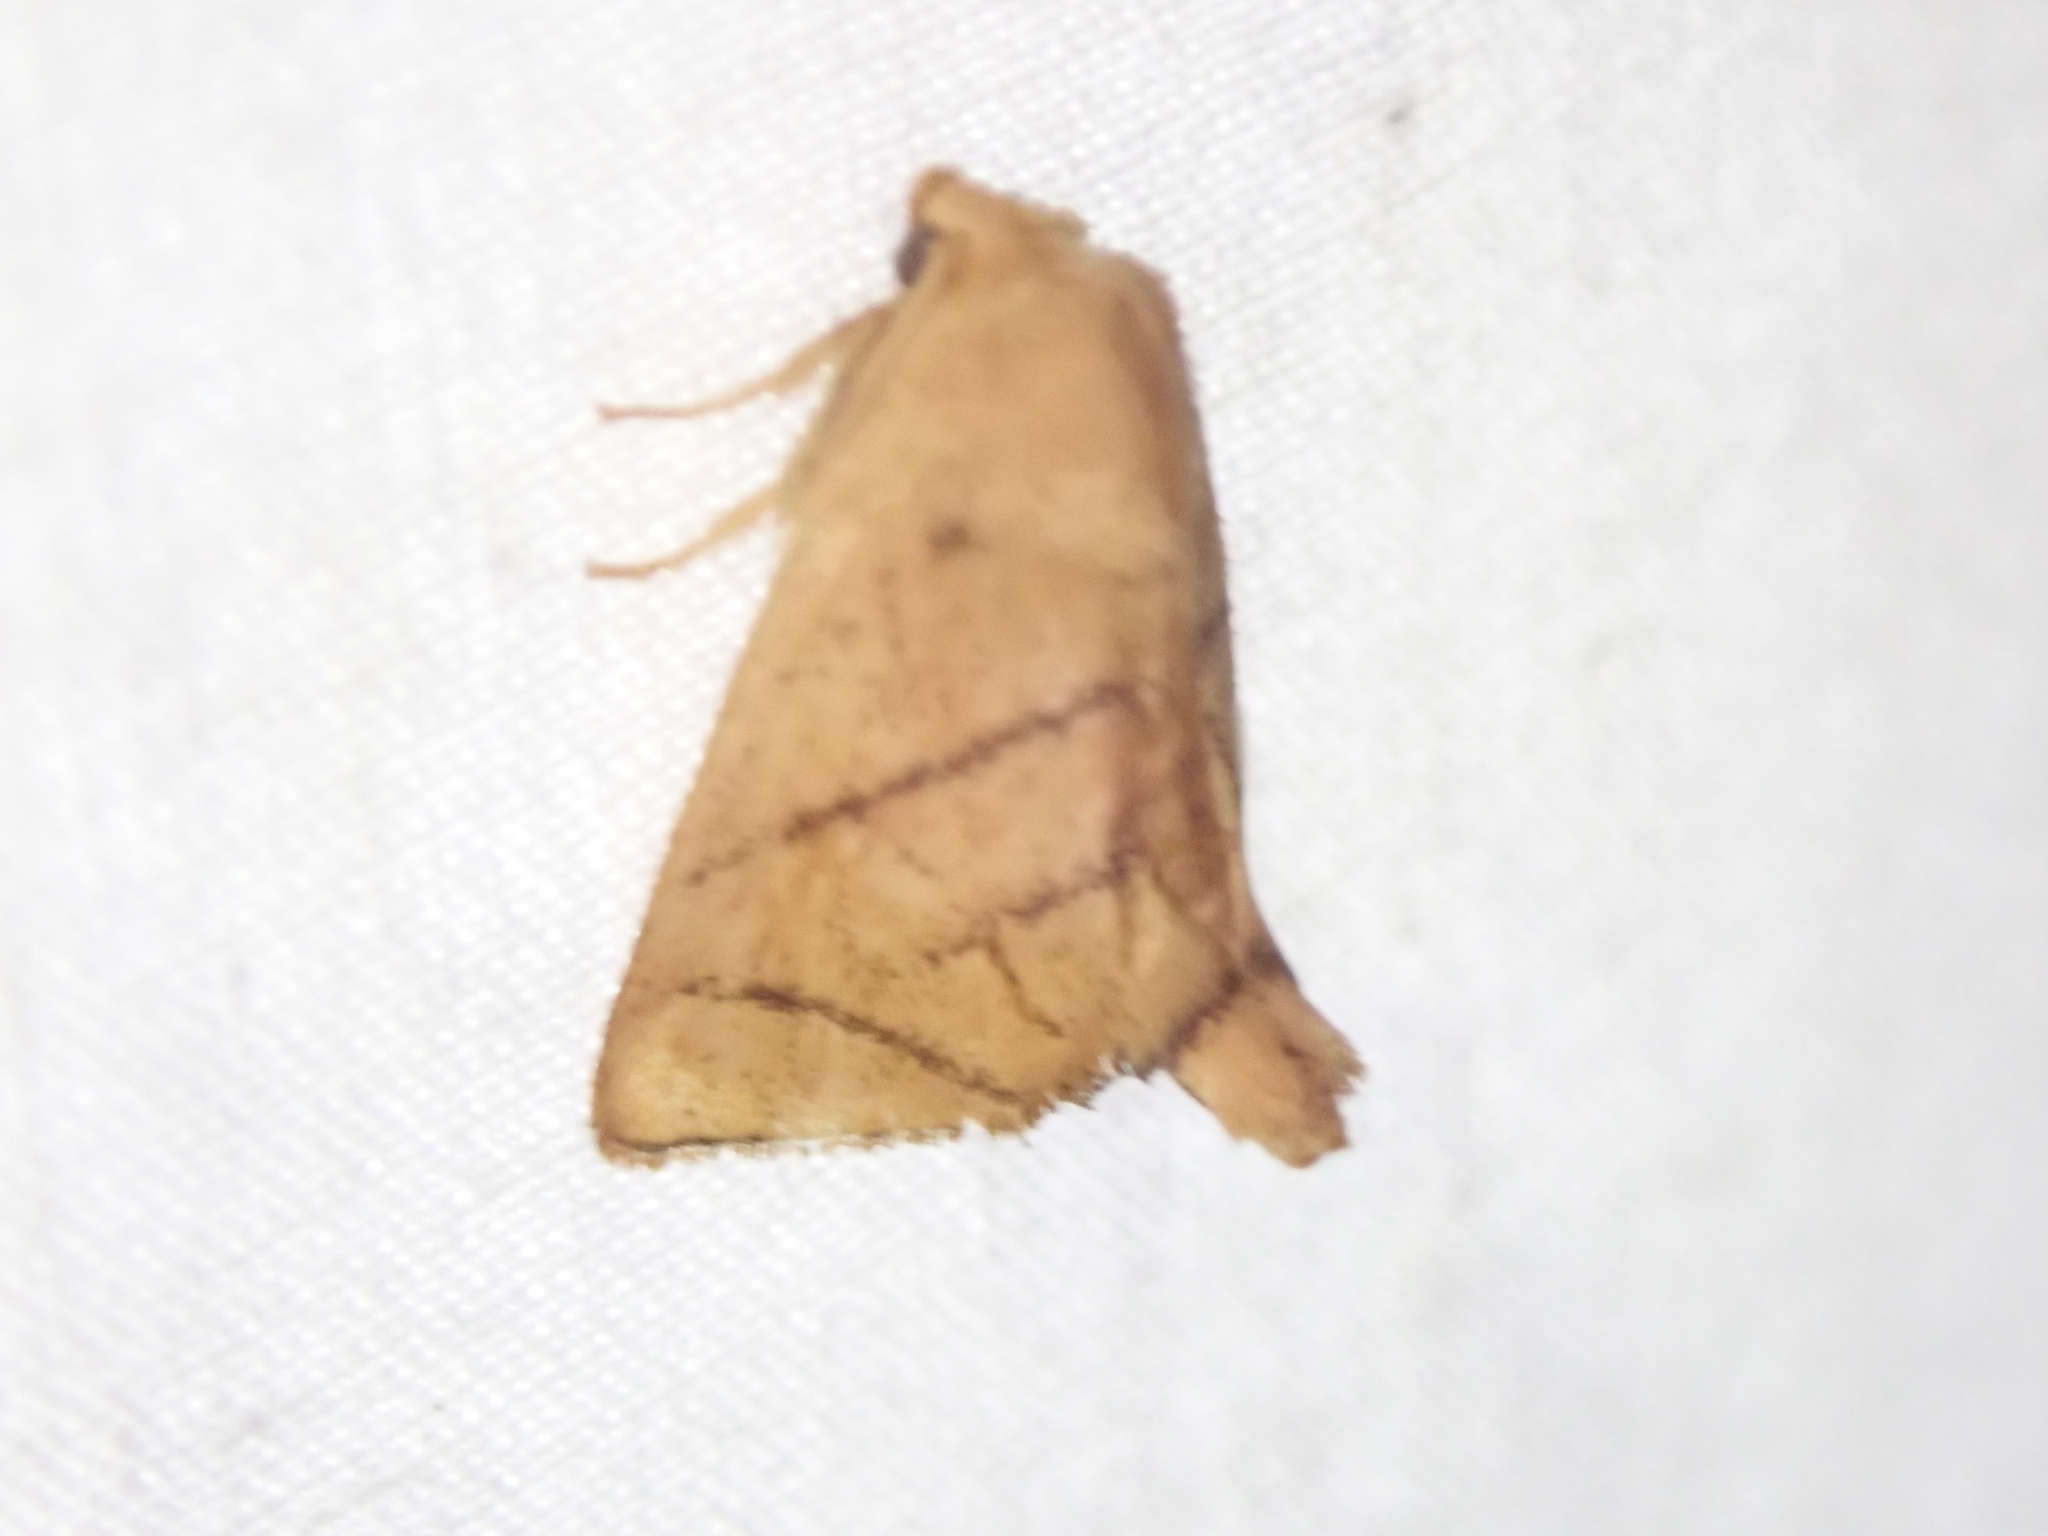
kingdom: Animalia
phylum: Arthropoda
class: Insecta
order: Lepidoptera
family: Limacodidae
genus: Apoda
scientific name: Apoda y-inversa
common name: Yellow-collared slug moth
